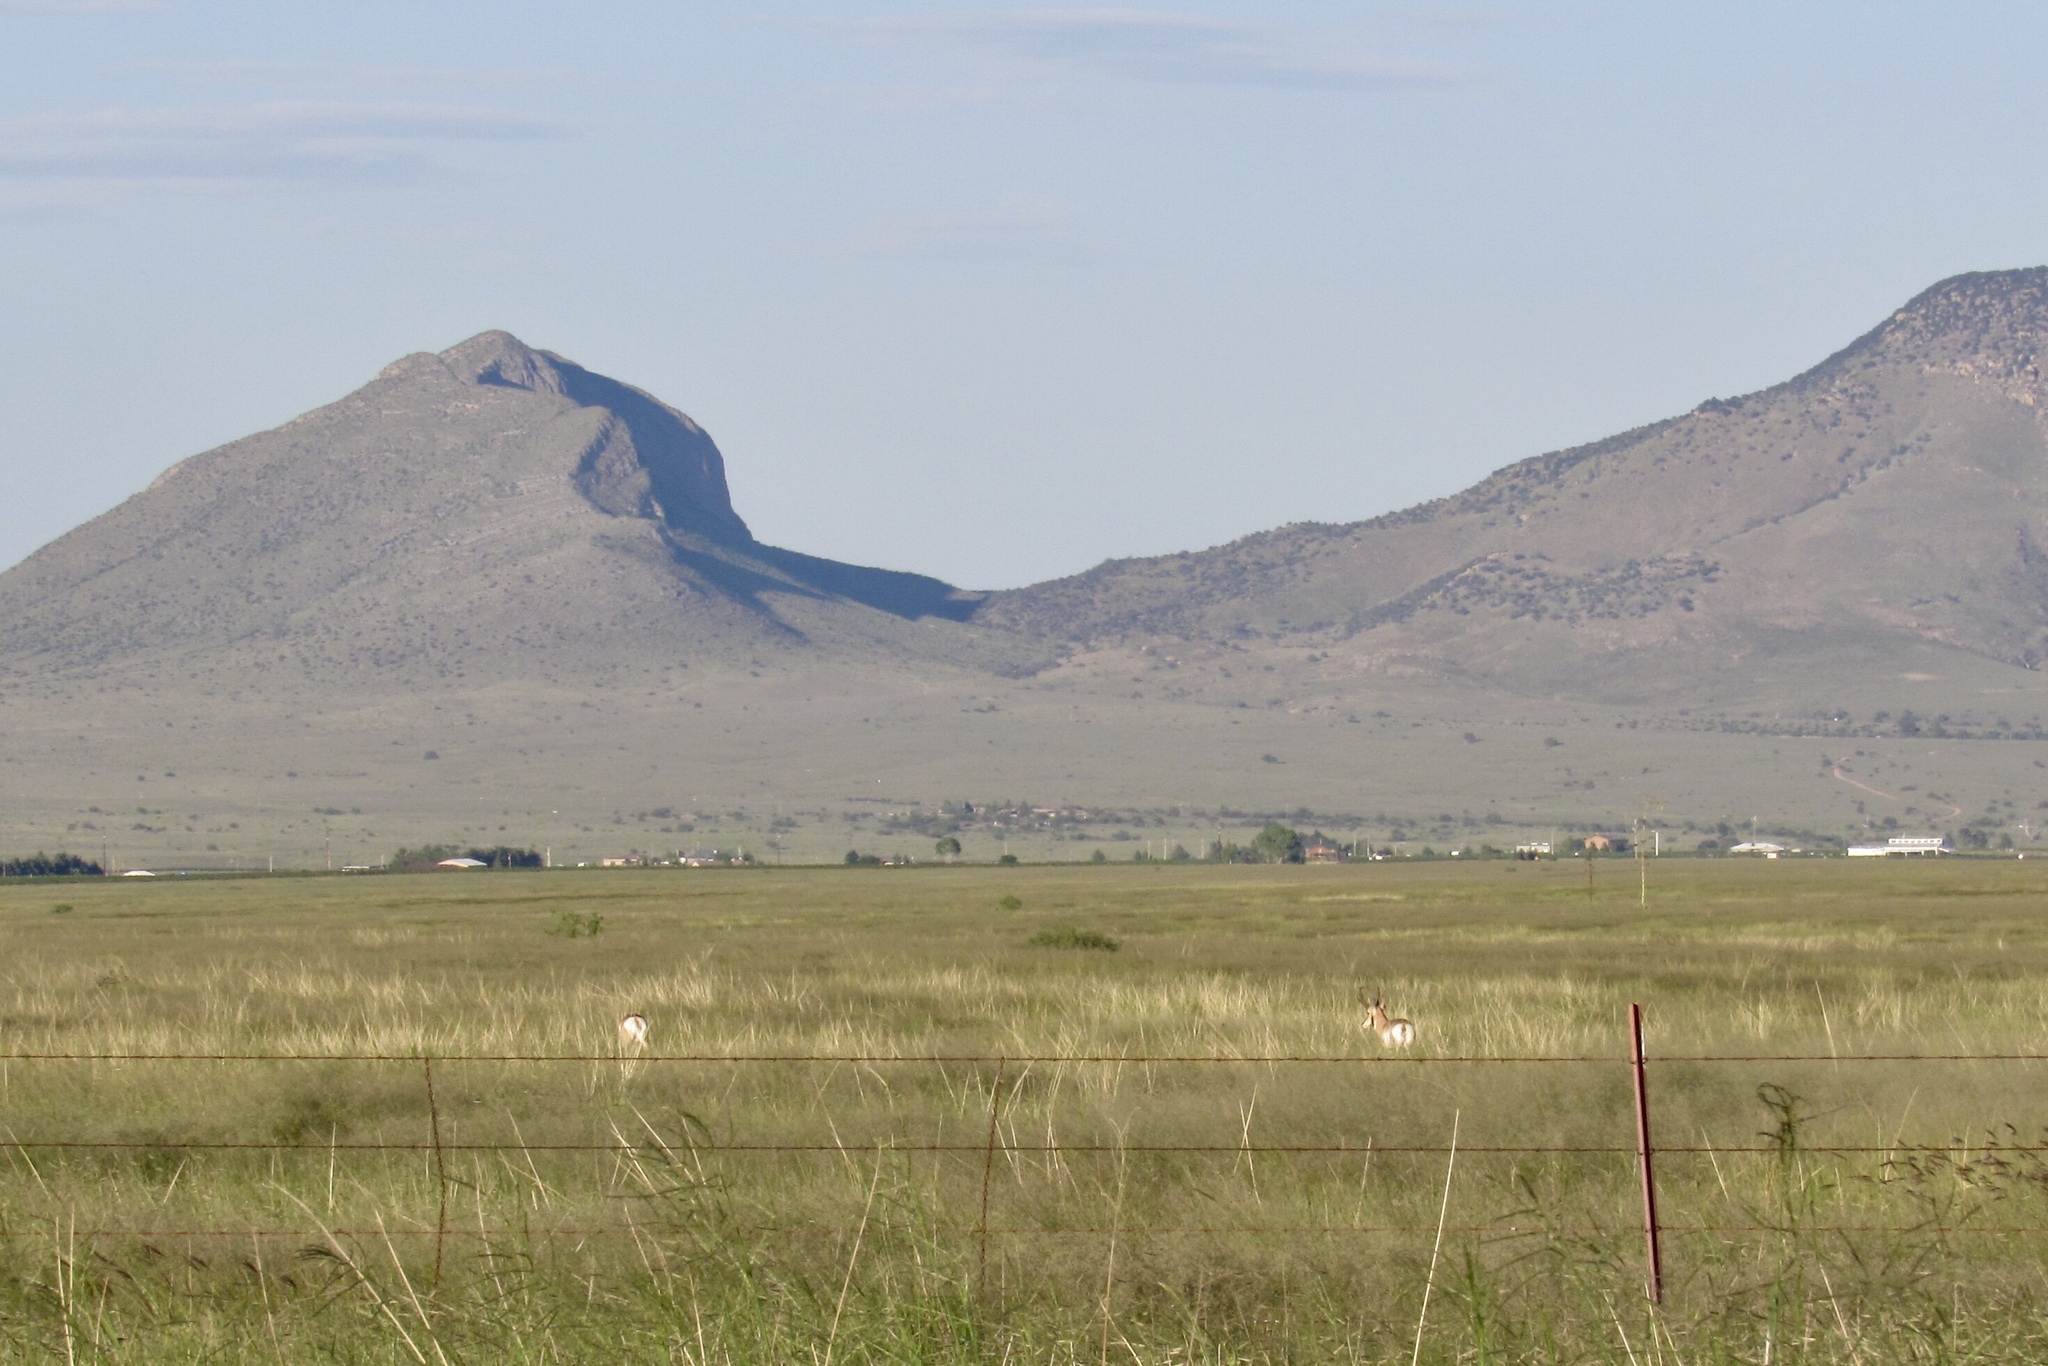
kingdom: Animalia
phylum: Chordata
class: Mammalia
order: Artiodactyla
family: Antilocapridae
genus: Antilocapra
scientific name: Antilocapra americana
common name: Pronghorn
